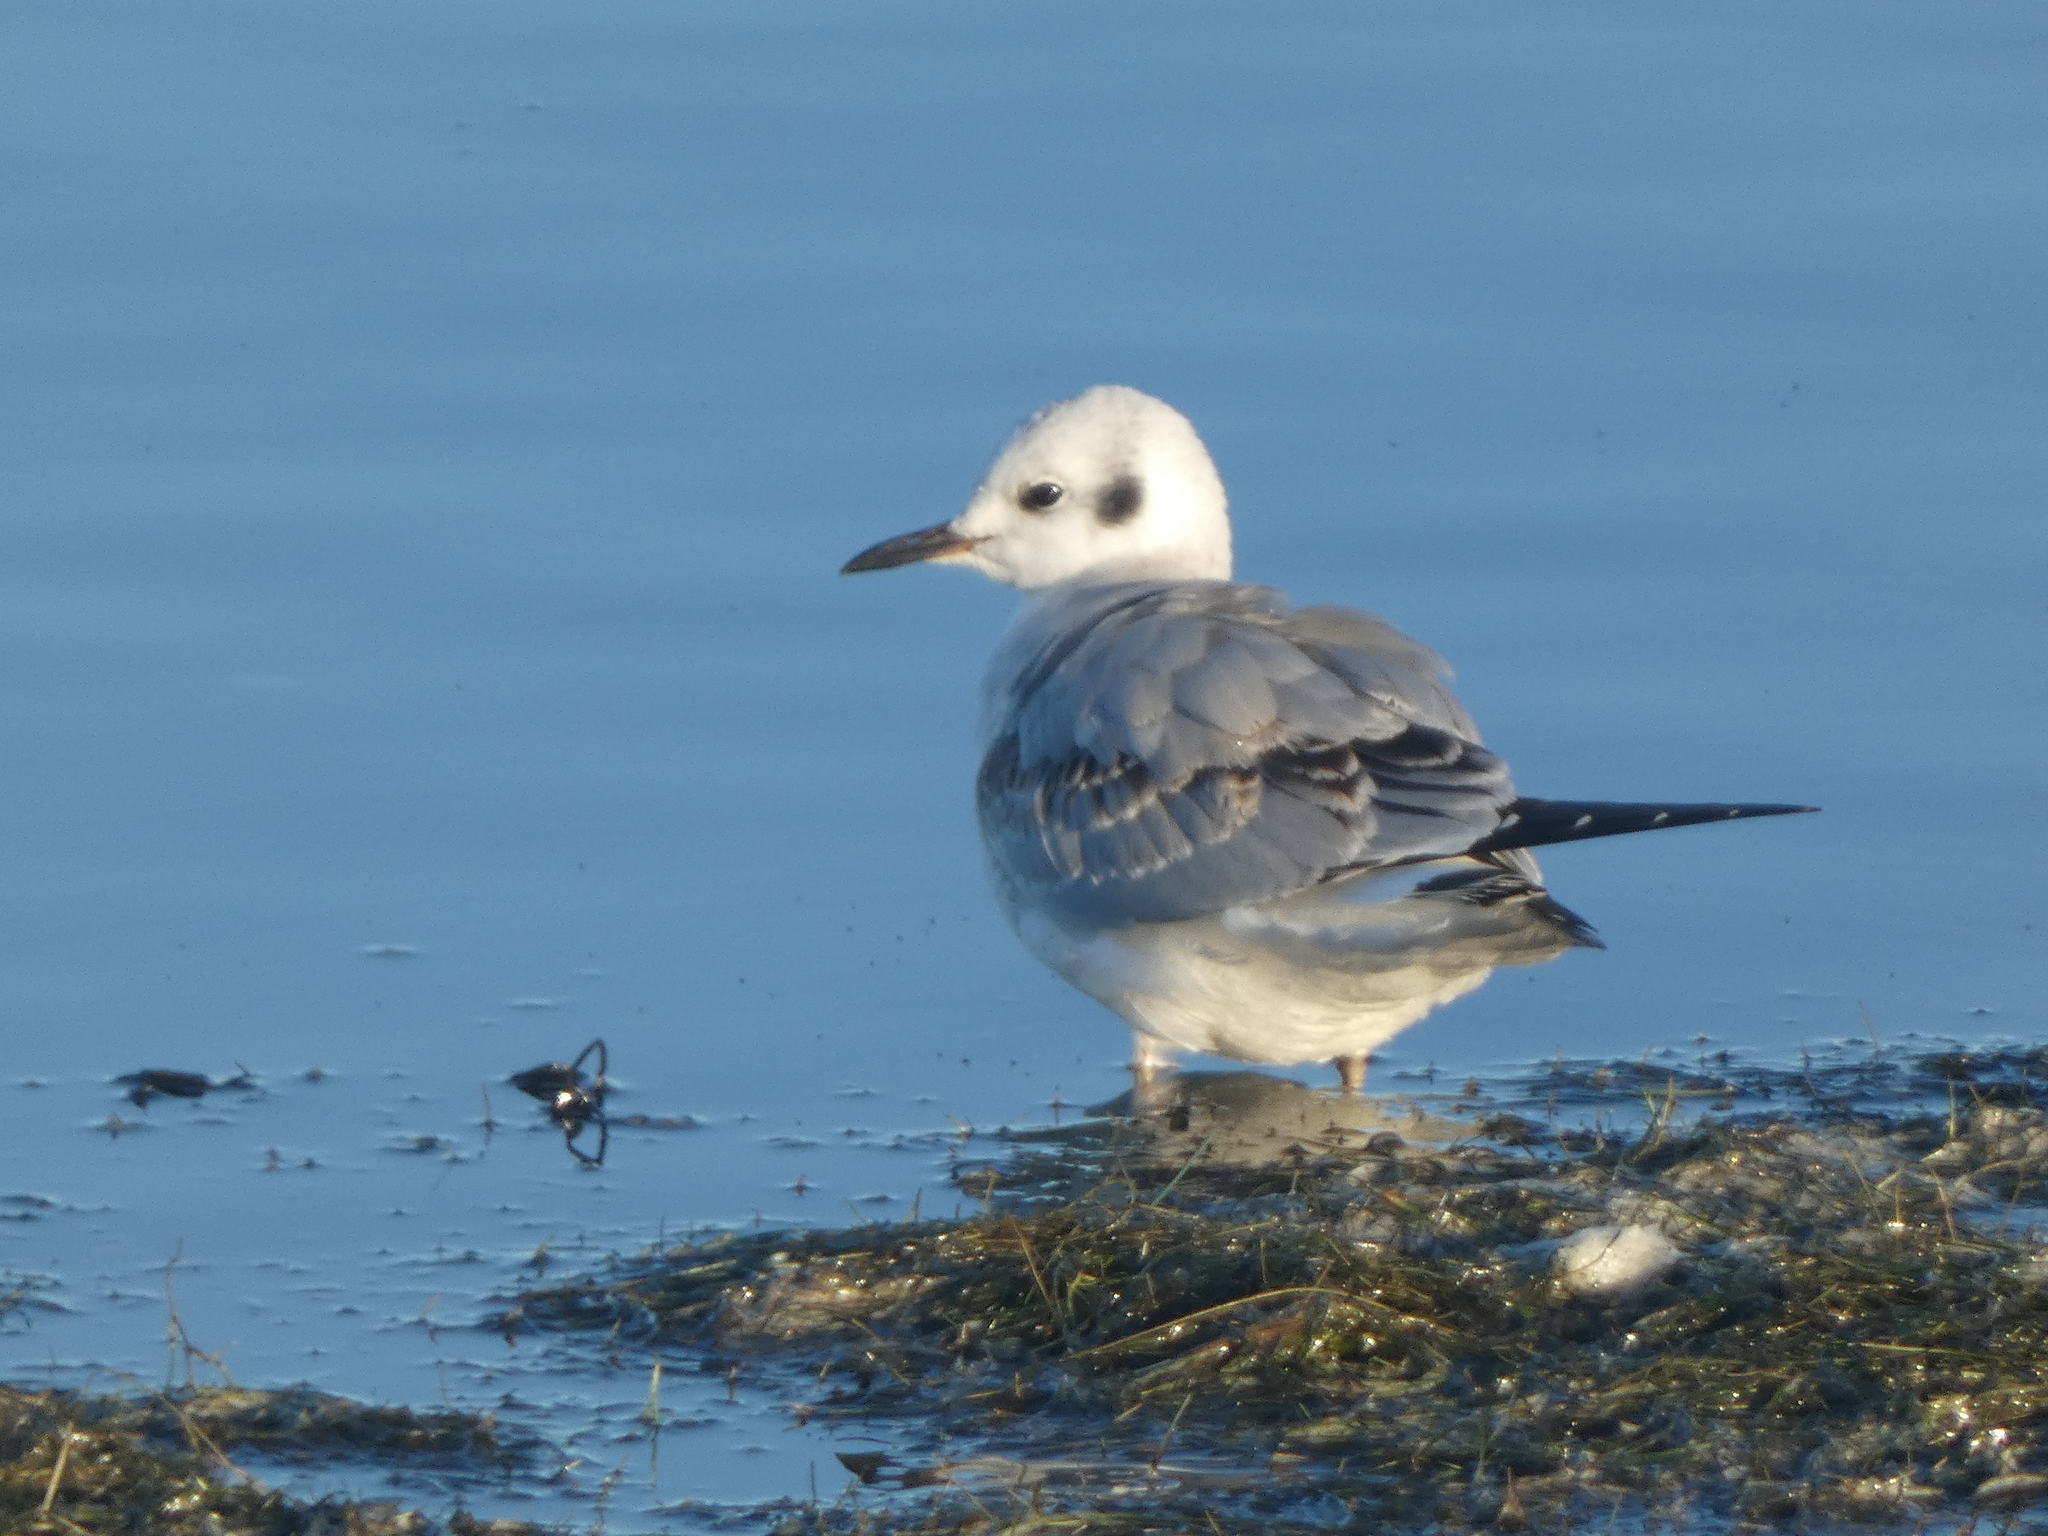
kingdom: Animalia
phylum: Chordata
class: Aves
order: Charadriiformes
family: Laridae
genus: Chroicocephalus
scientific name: Chroicocephalus philadelphia
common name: Bonaparte's gull
